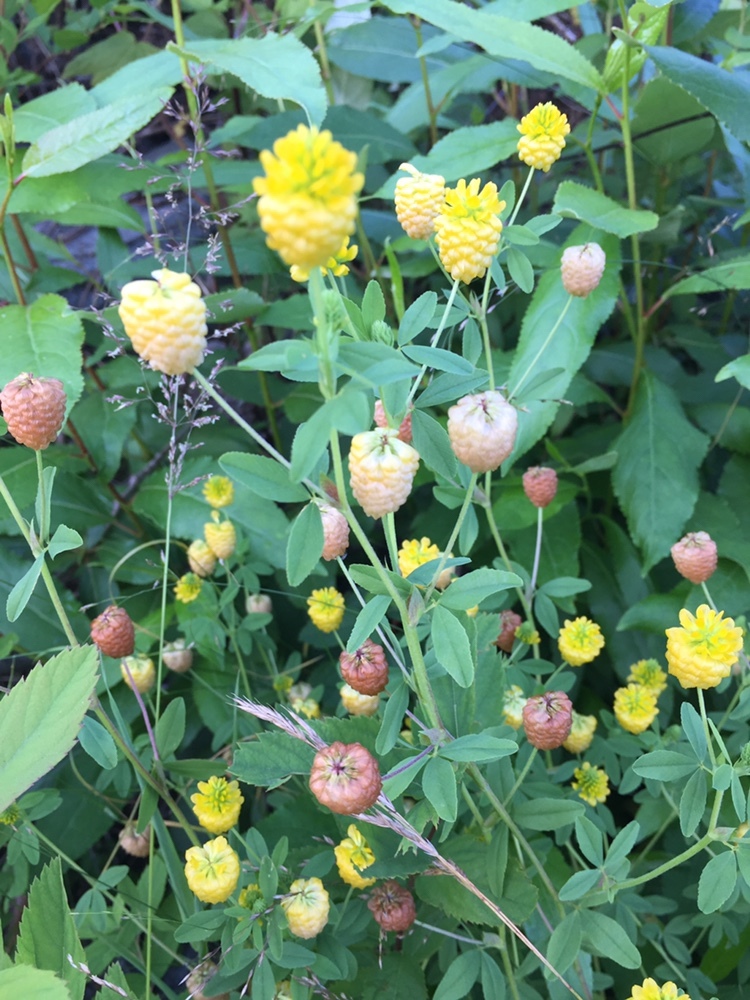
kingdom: Plantae
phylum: Tracheophyta
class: Magnoliopsida
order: Fabales
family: Fabaceae
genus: Trifolium
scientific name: Trifolium aureum
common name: Golden clover
